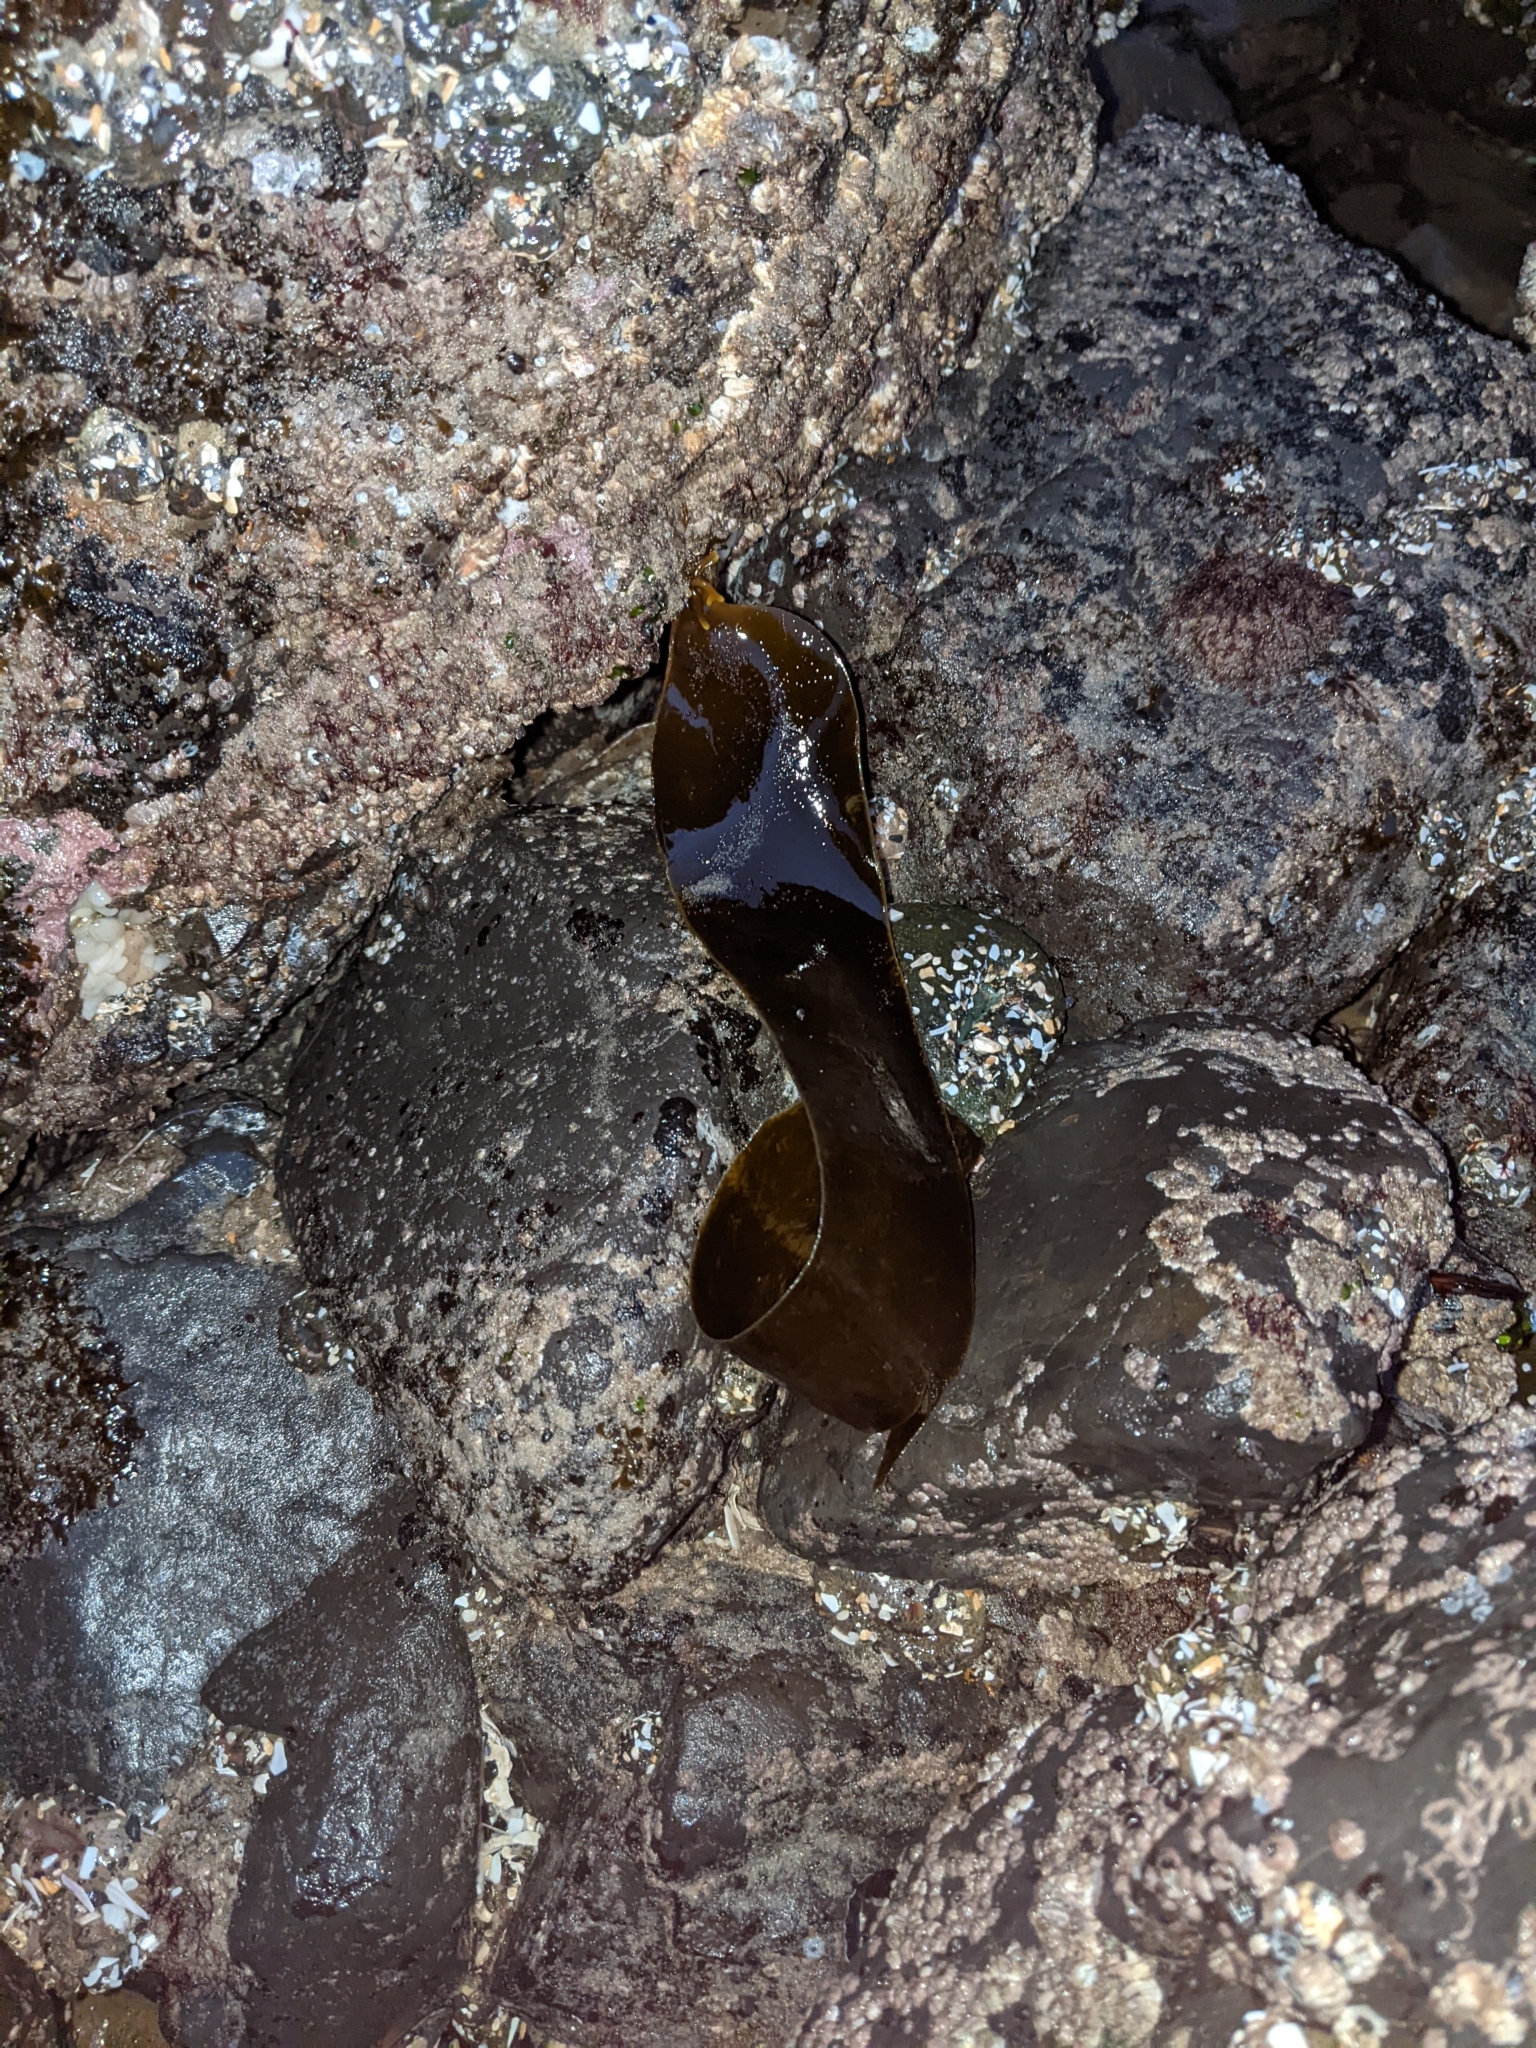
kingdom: Chromista
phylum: Ochrophyta
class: Phaeophyceae
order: Laminariales
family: Laminariaceae
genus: Hedophyllum
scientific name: Hedophyllum sessile
